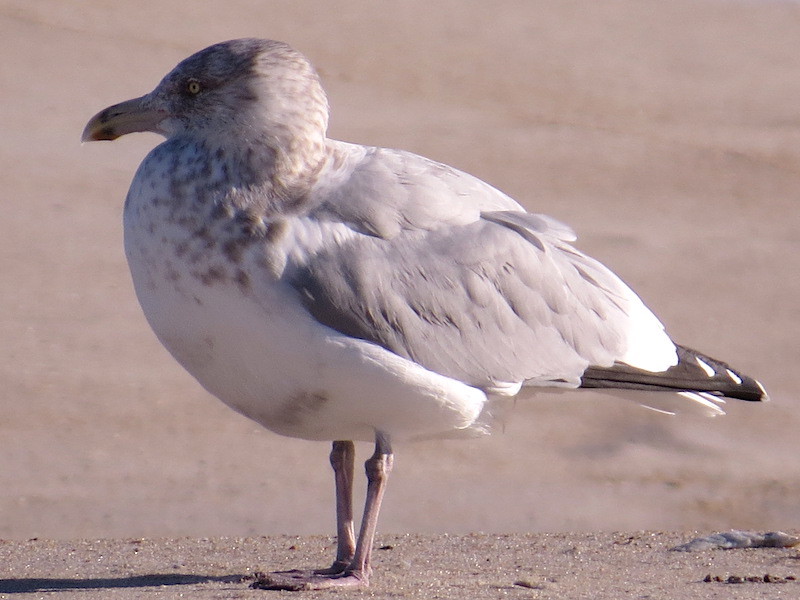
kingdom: Animalia
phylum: Chordata
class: Aves
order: Charadriiformes
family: Laridae
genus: Larus
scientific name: Larus argentatus
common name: Herring gull
